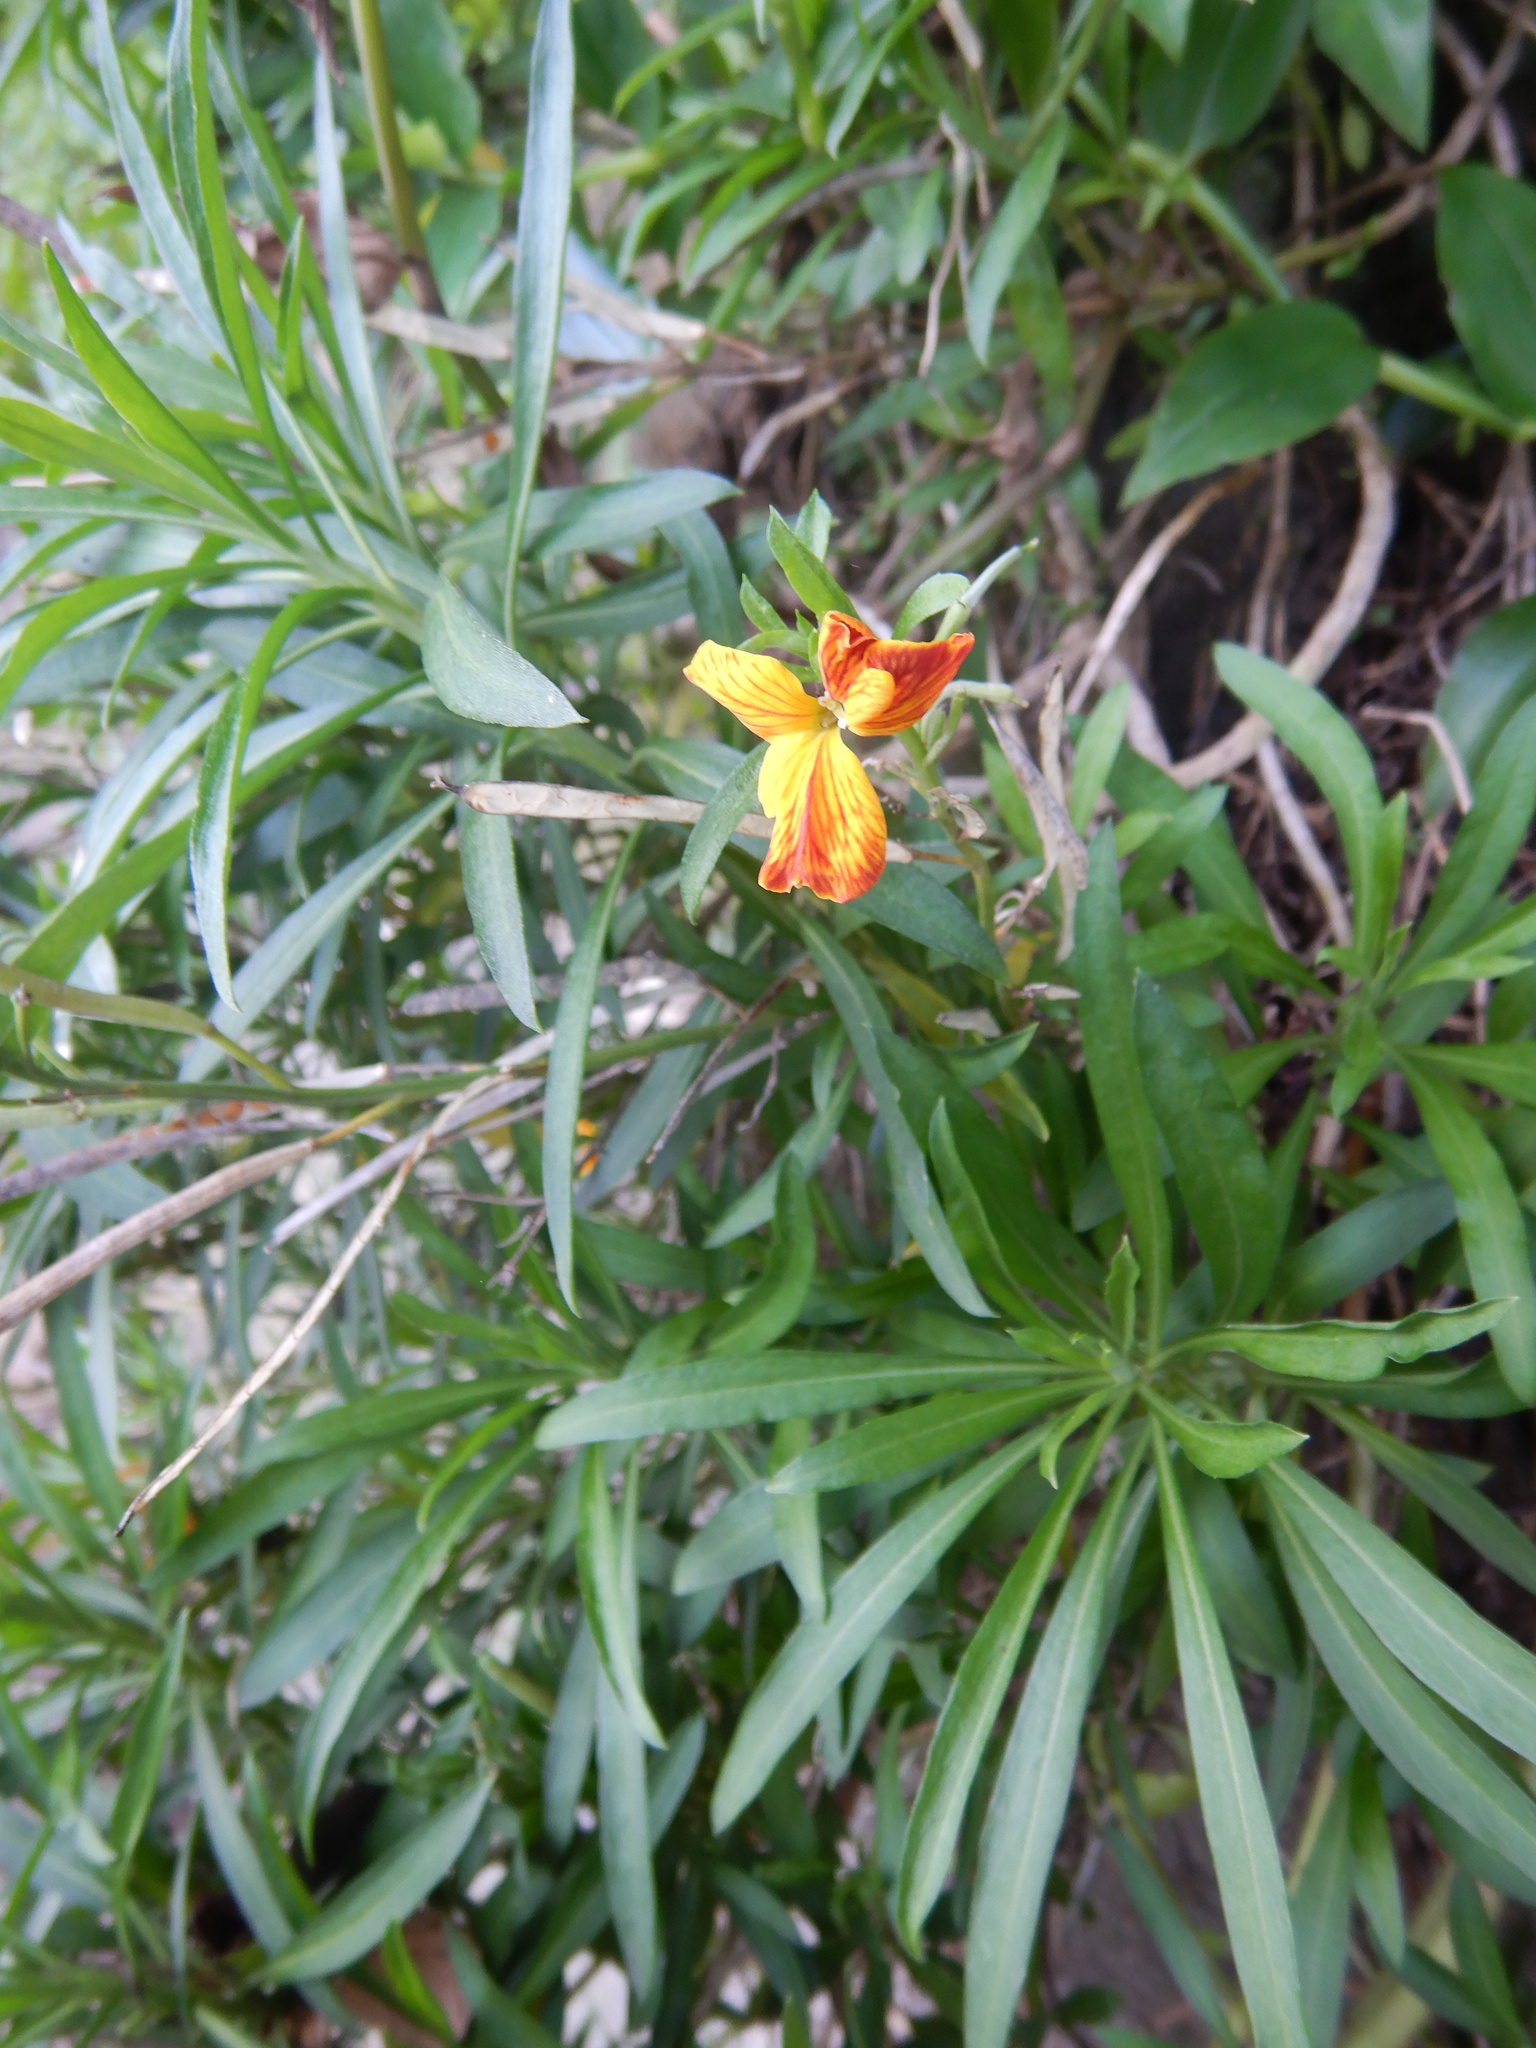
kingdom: Plantae
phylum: Tracheophyta
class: Magnoliopsida
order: Brassicales
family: Brassicaceae
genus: Erysimum
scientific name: Erysimum cheiri
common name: Wallflower
